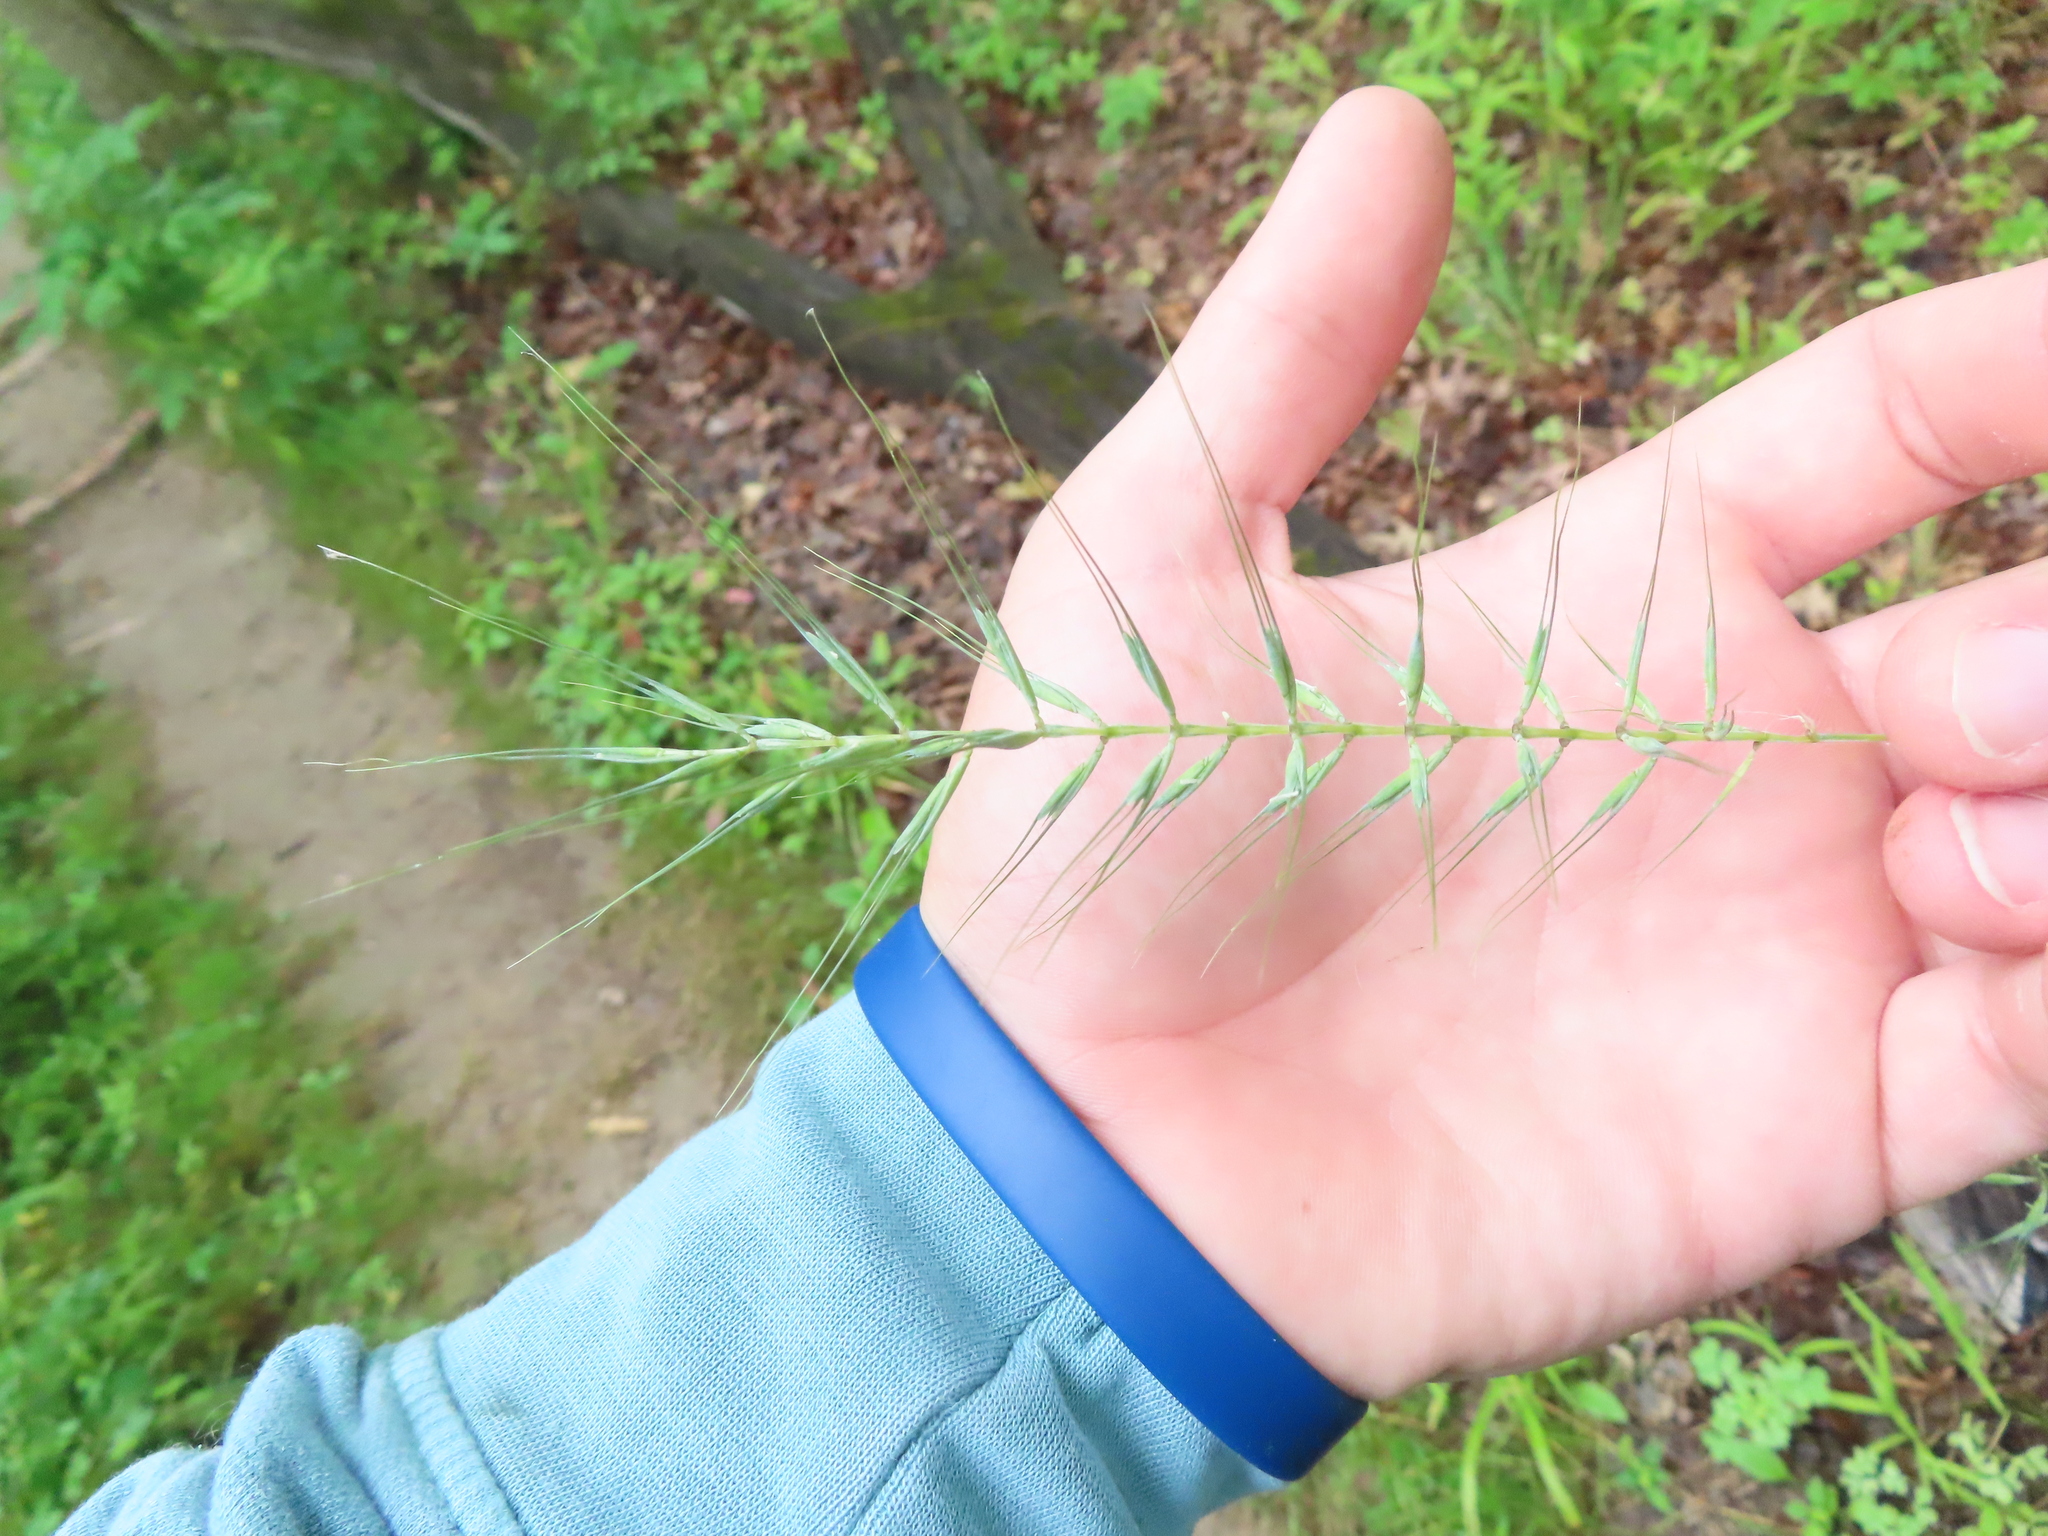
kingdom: Plantae
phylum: Tracheophyta
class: Liliopsida
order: Poales
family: Poaceae
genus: Elymus
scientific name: Elymus hystrix
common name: Bottlebrush grass
